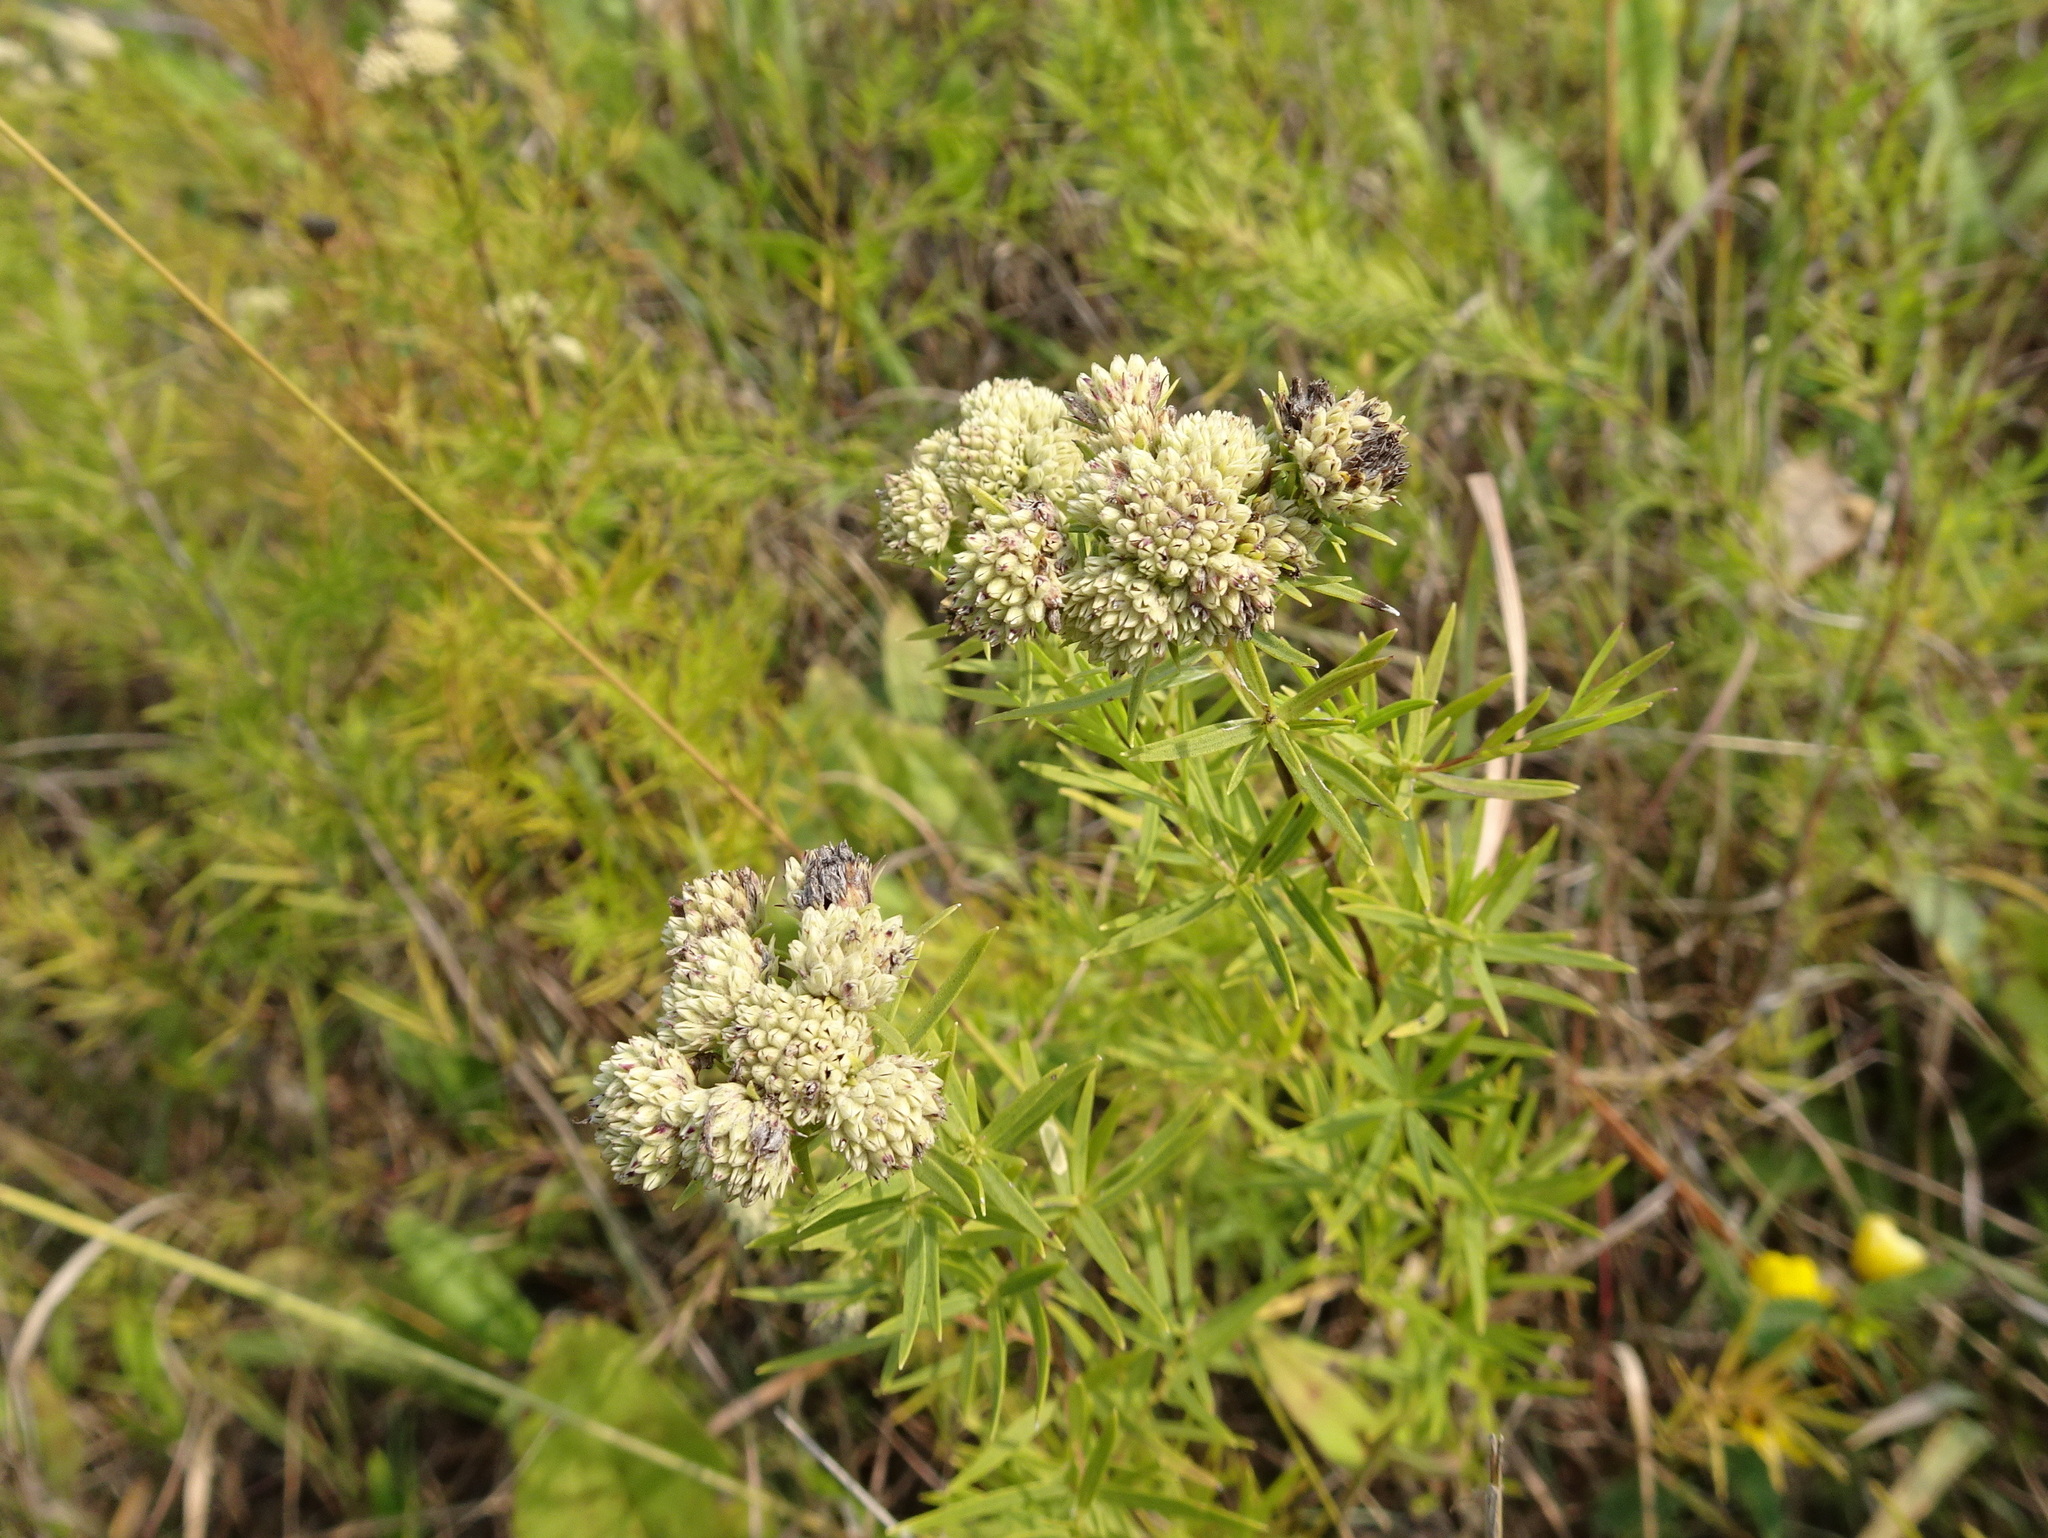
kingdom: Plantae
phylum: Tracheophyta
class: Magnoliopsida
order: Lamiales
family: Lamiaceae
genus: Pycnanthemum
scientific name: Pycnanthemum tenuifolium
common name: Narrow-leaf mountain-mint
